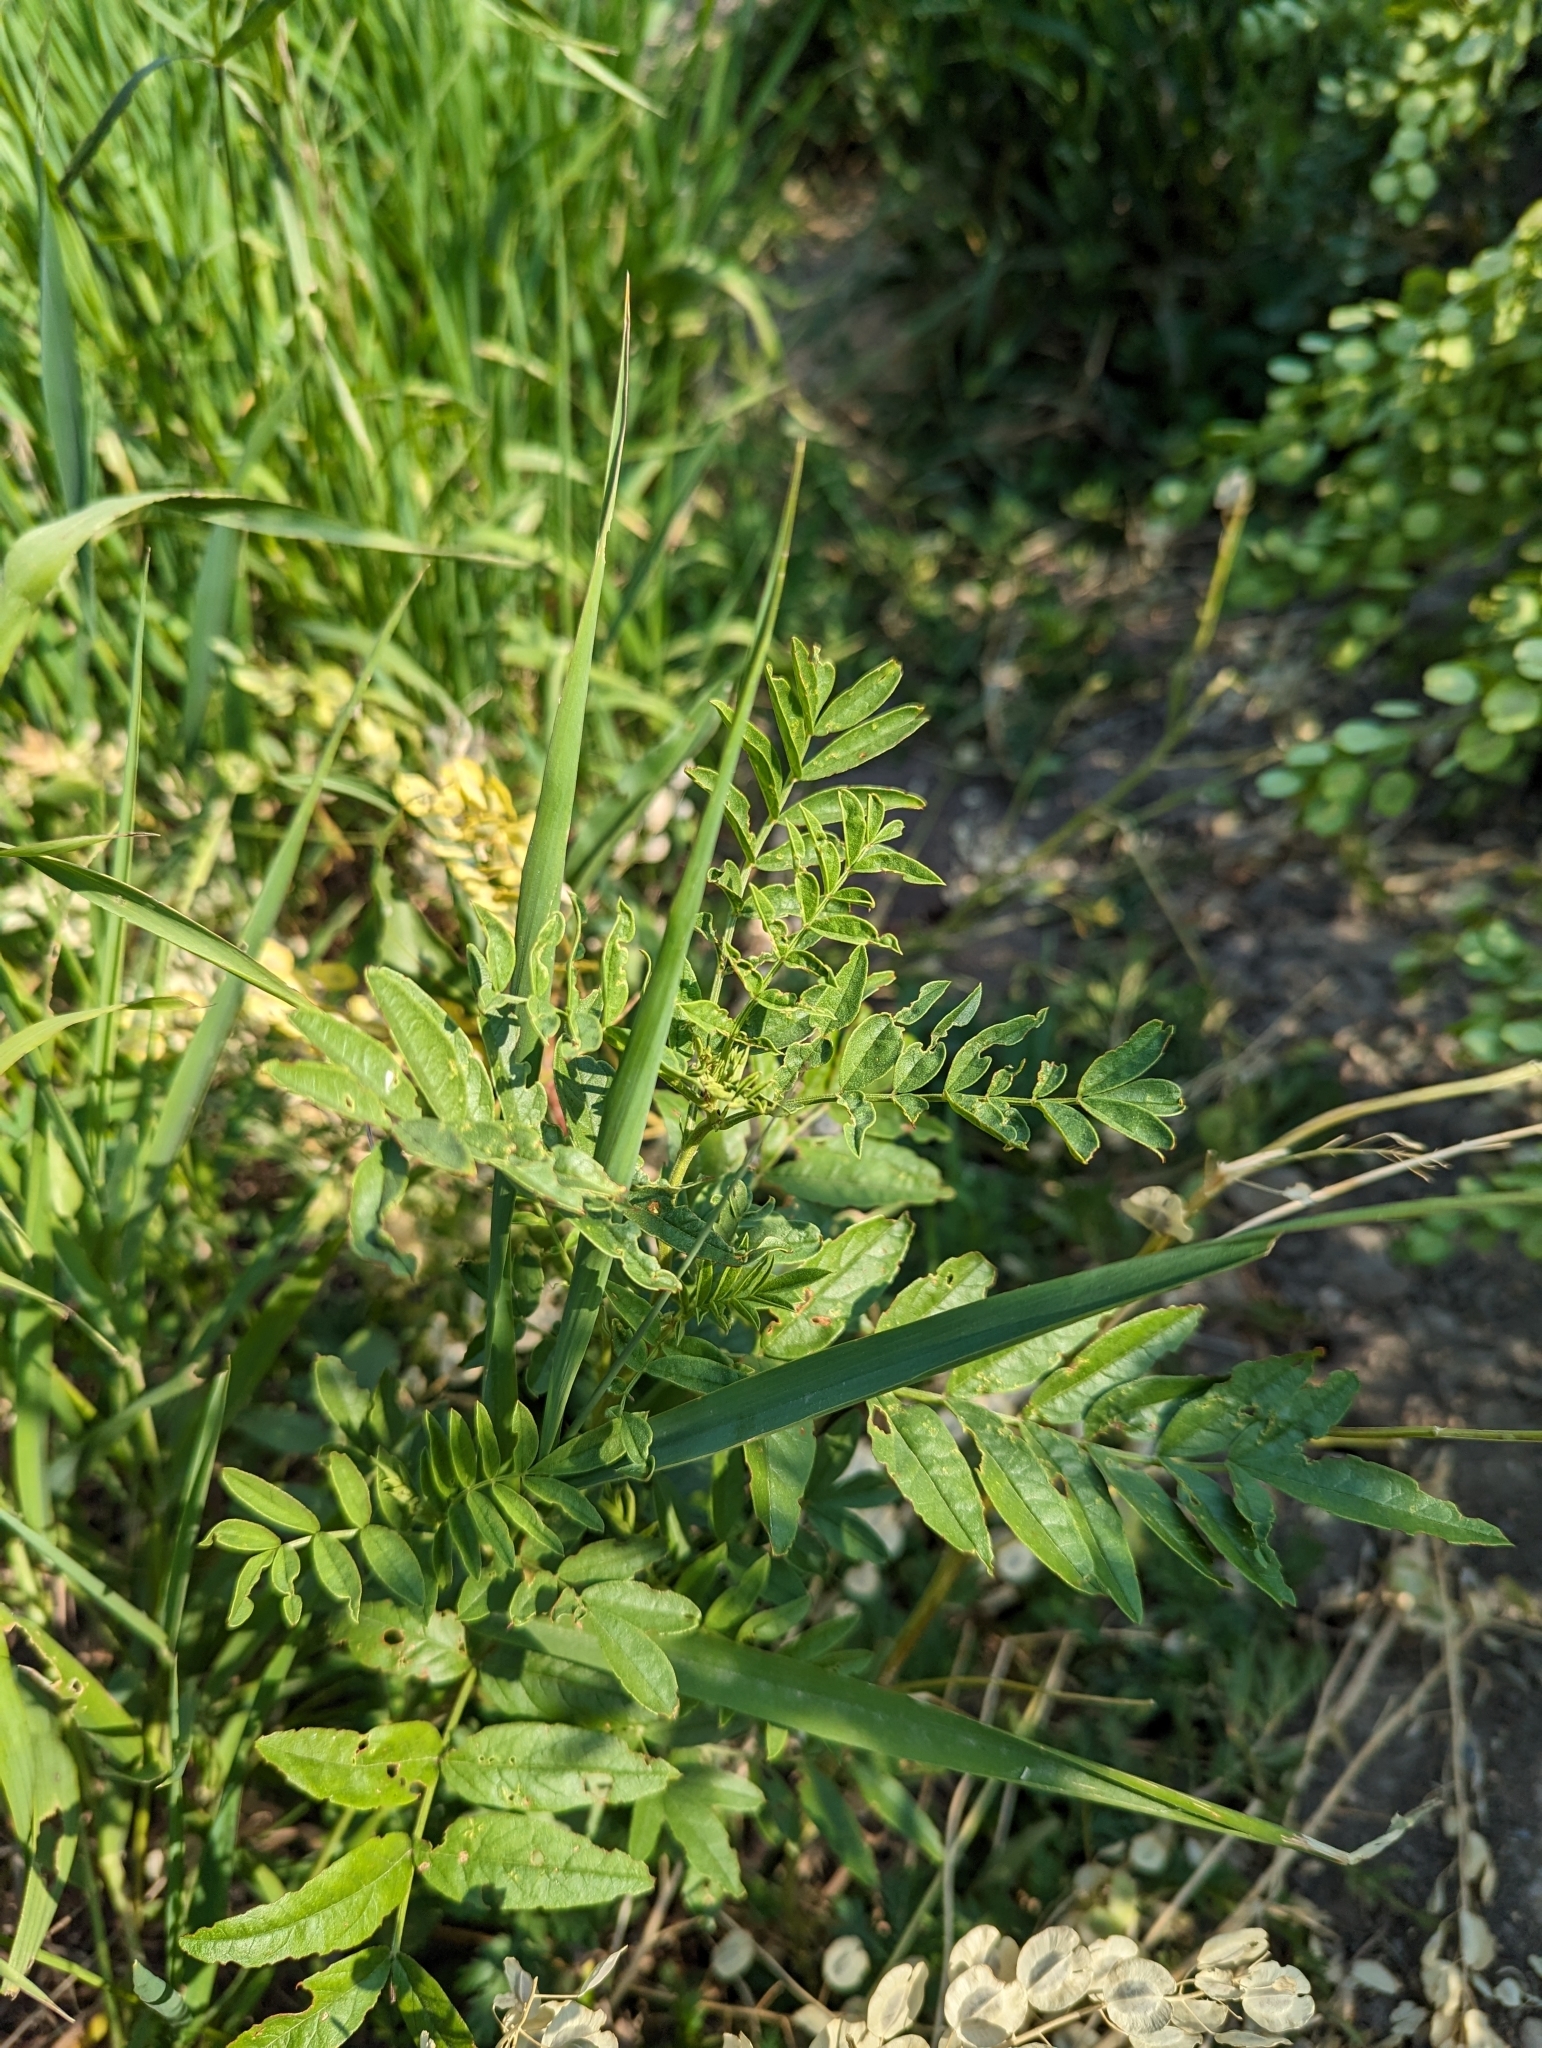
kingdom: Plantae
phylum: Tracheophyta
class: Magnoliopsida
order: Fabales
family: Fabaceae
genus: Glycyrrhiza
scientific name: Glycyrrhiza lepidota
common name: American liquorice
